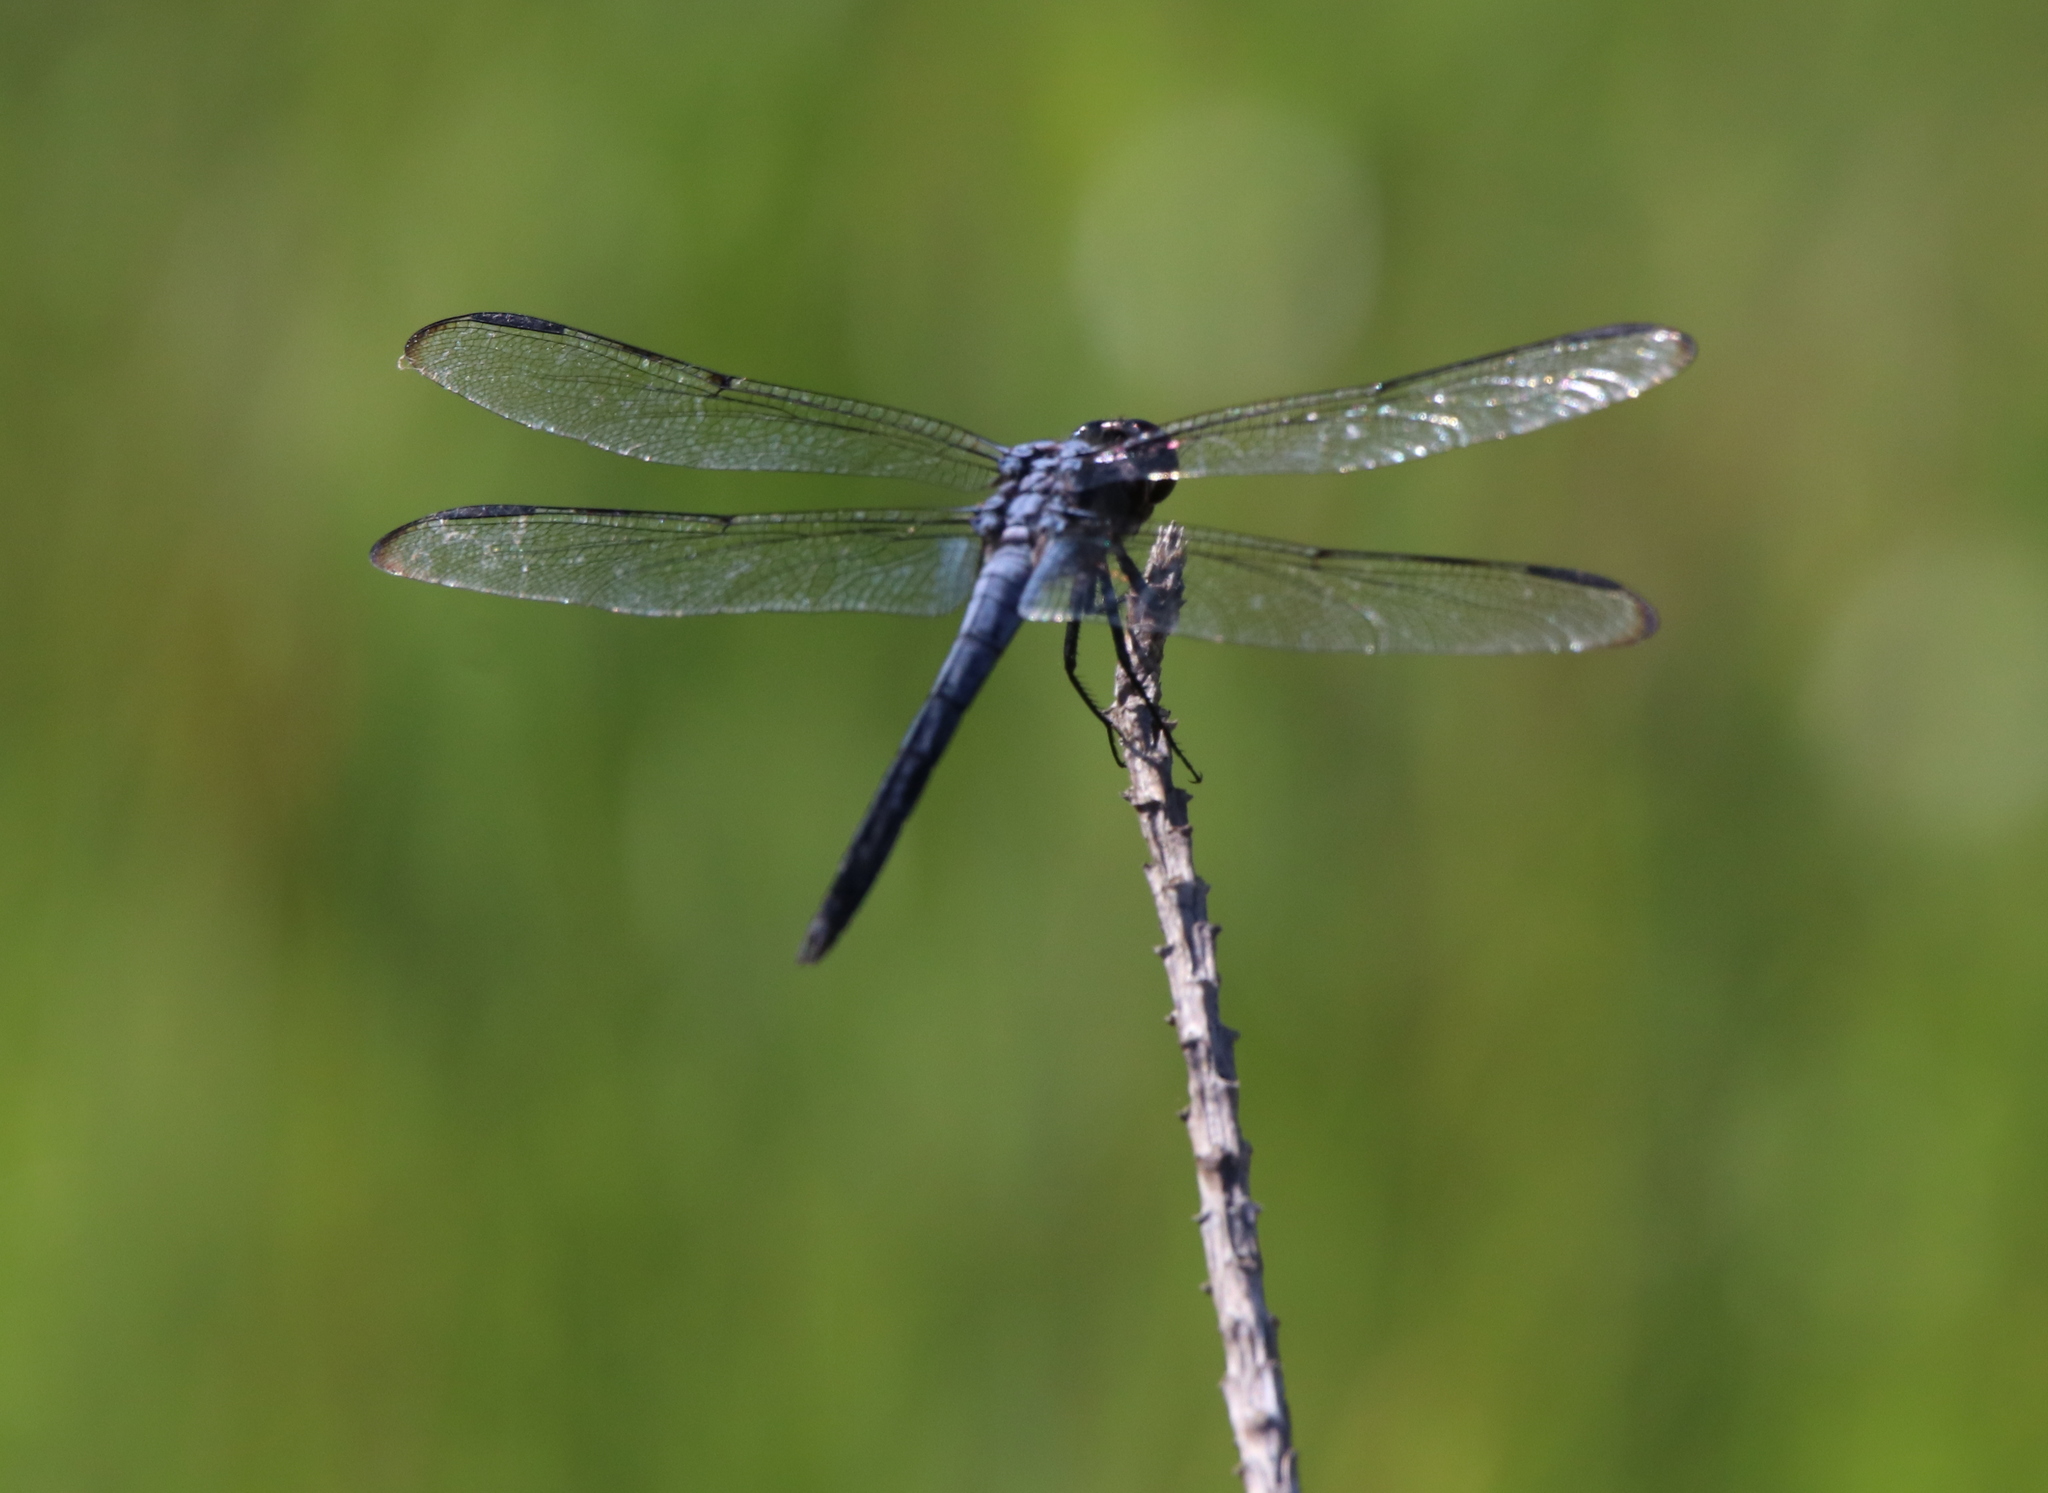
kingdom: Animalia
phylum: Arthropoda
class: Insecta
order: Odonata
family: Libellulidae
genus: Libellula
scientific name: Libellula axilena
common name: Bar-winged skimmer
